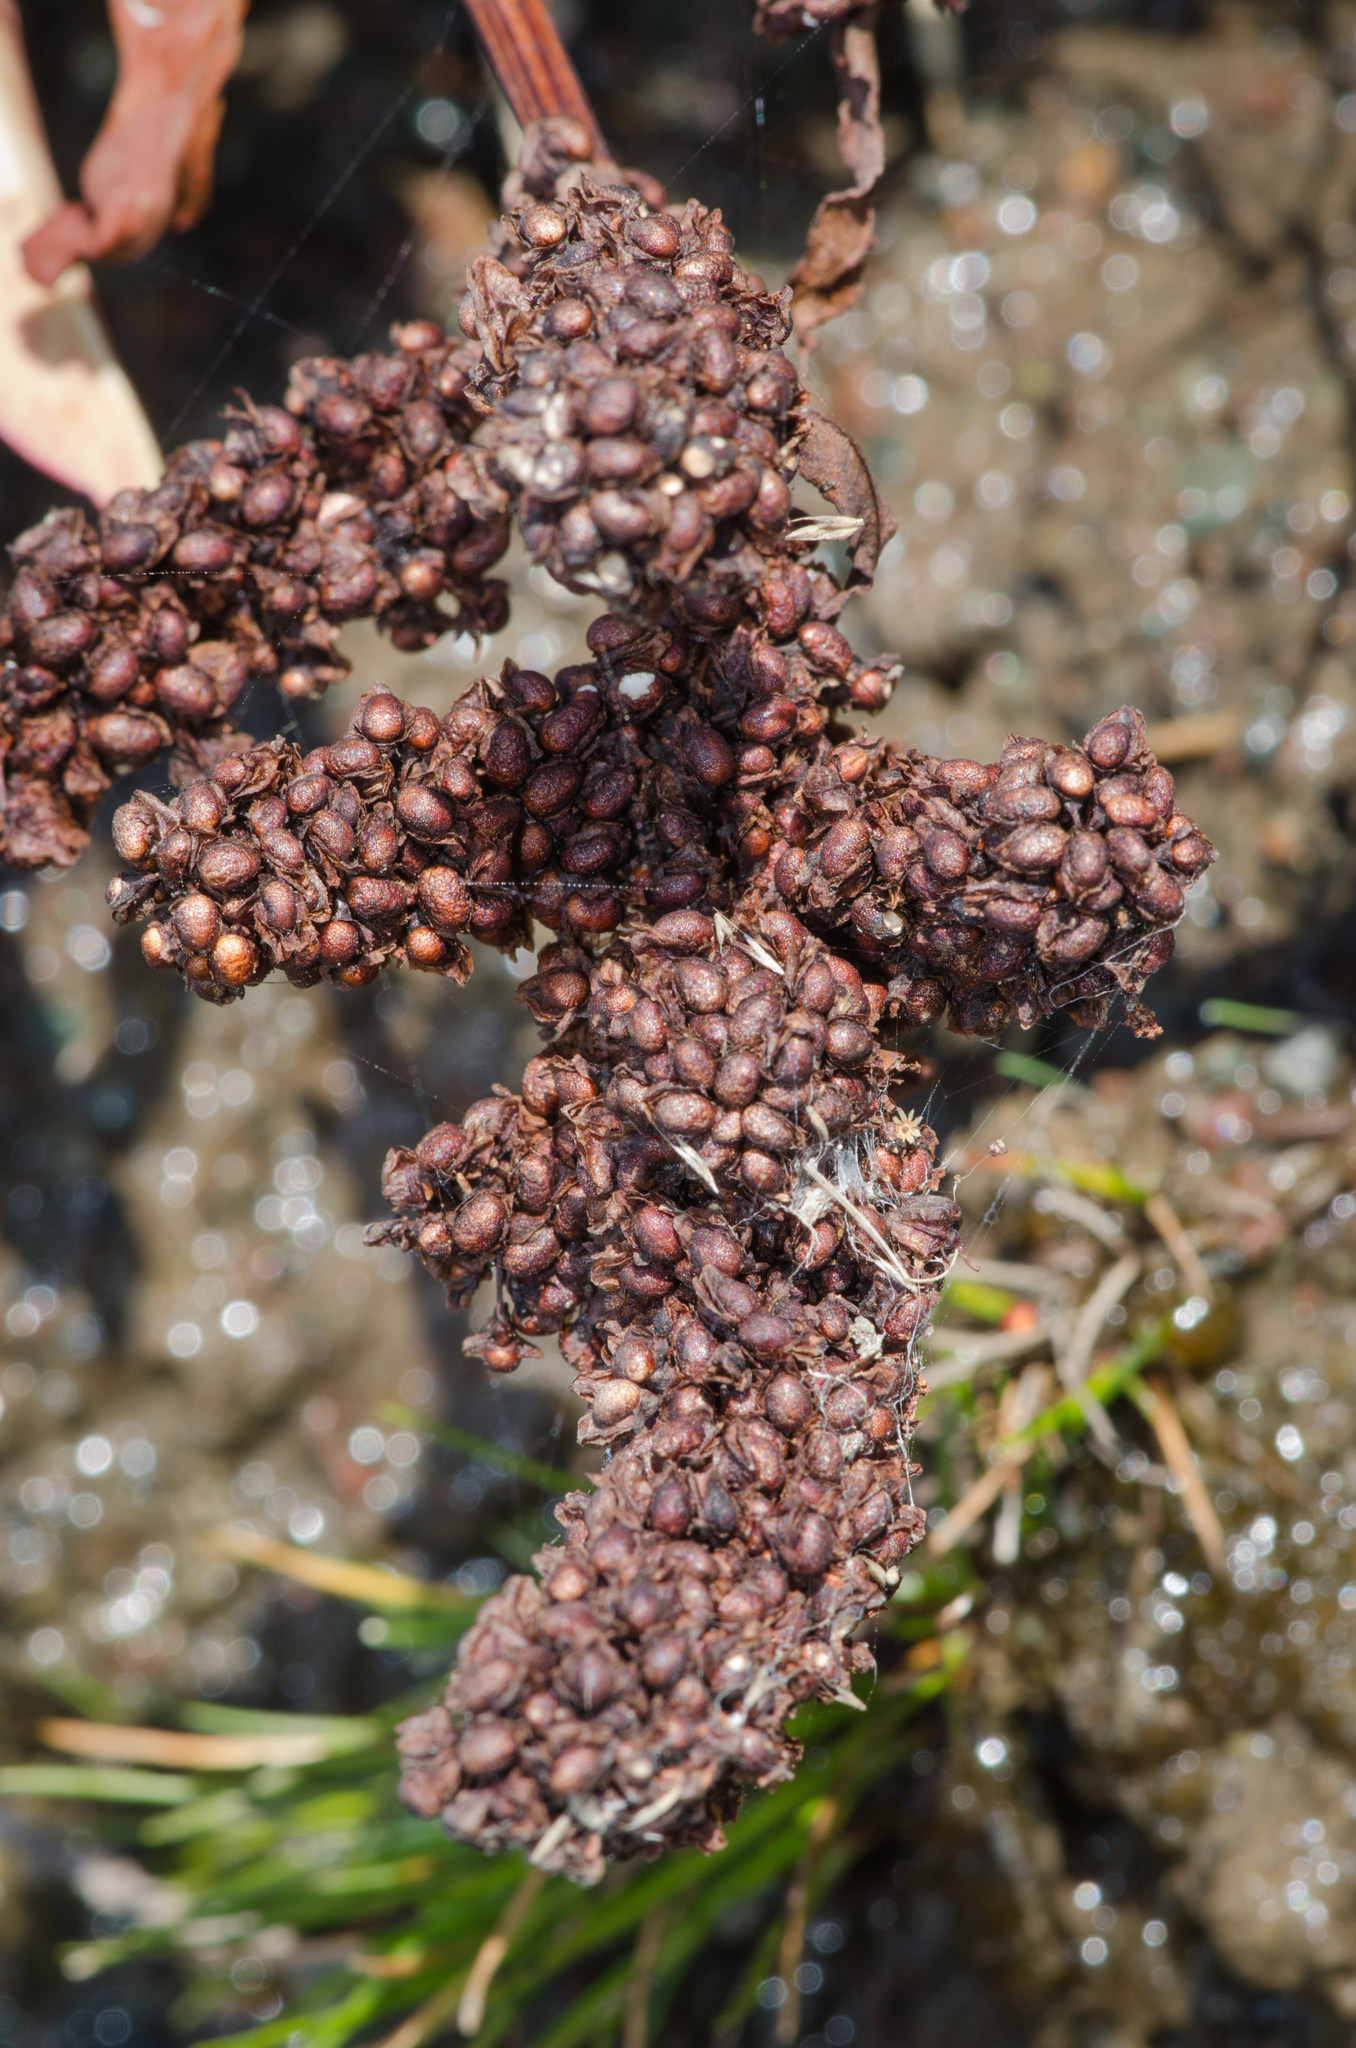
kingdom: Plantae
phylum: Tracheophyta
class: Magnoliopsida
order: Caryophyllales
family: Polygonaceae
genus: Rumex
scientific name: Rumex crassus
